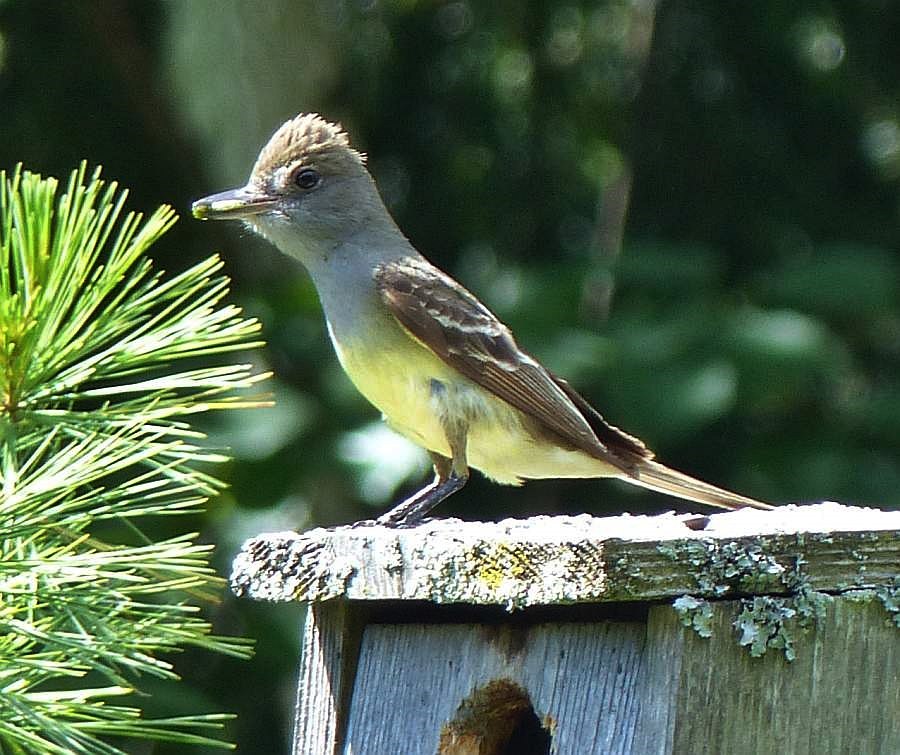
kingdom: Animalia
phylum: Chordata
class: Aves
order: Passeriformes
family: Tyrannidae
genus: Myiarchus
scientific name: Myiarchus crinitus
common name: Great crested flycatcher
